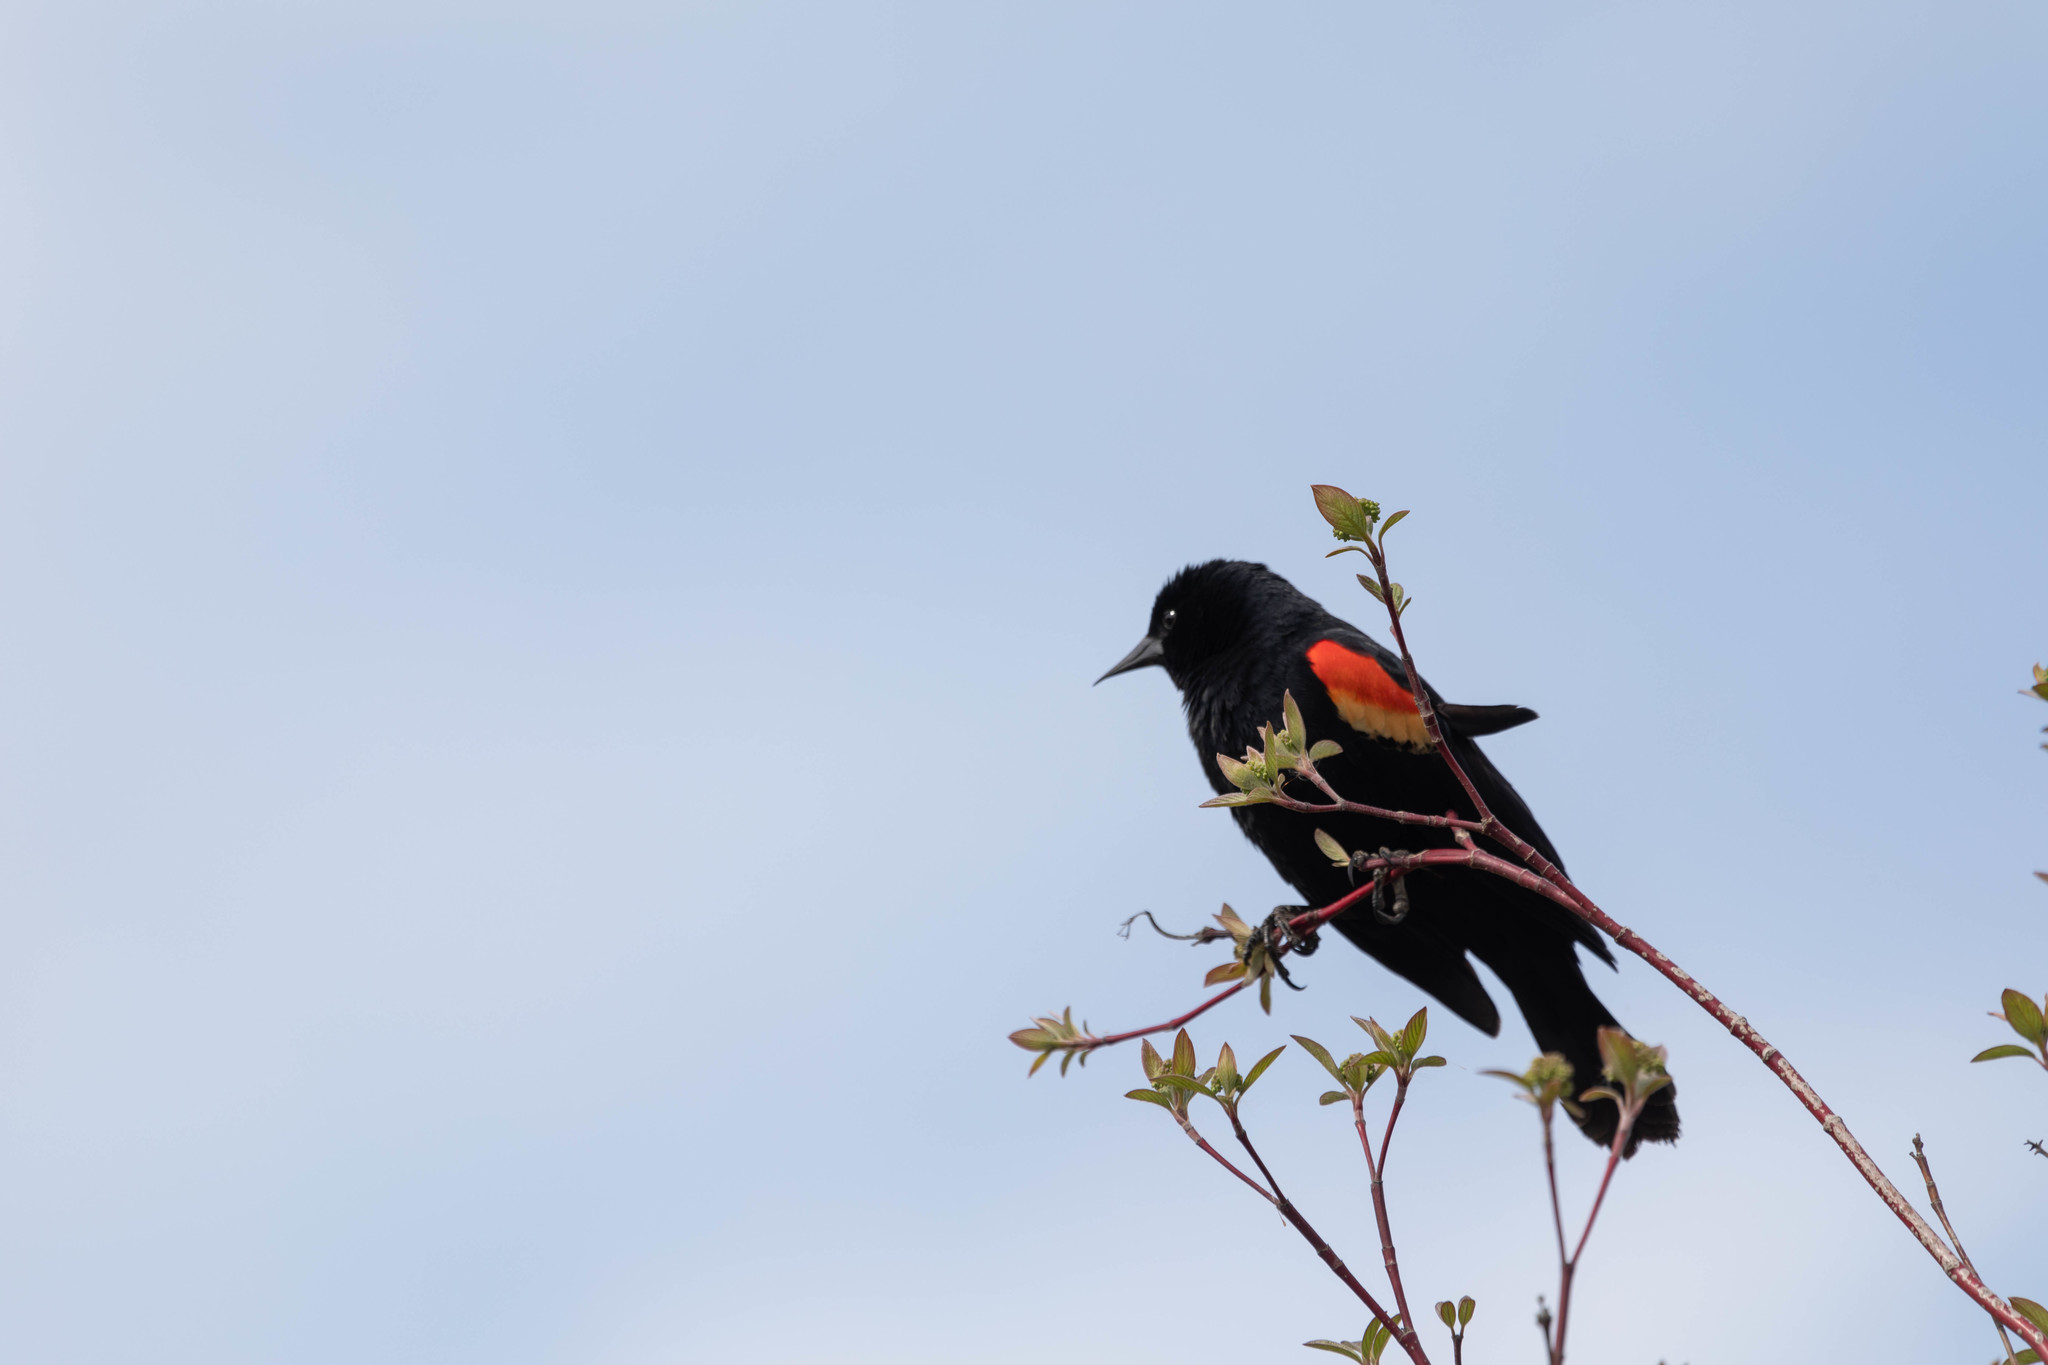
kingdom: Animalia
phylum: Chordata
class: Aves
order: Passeriformes
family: Icteridae
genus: Agelaius
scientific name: Agelaius phoeniceus
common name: Red-winged blackbird
